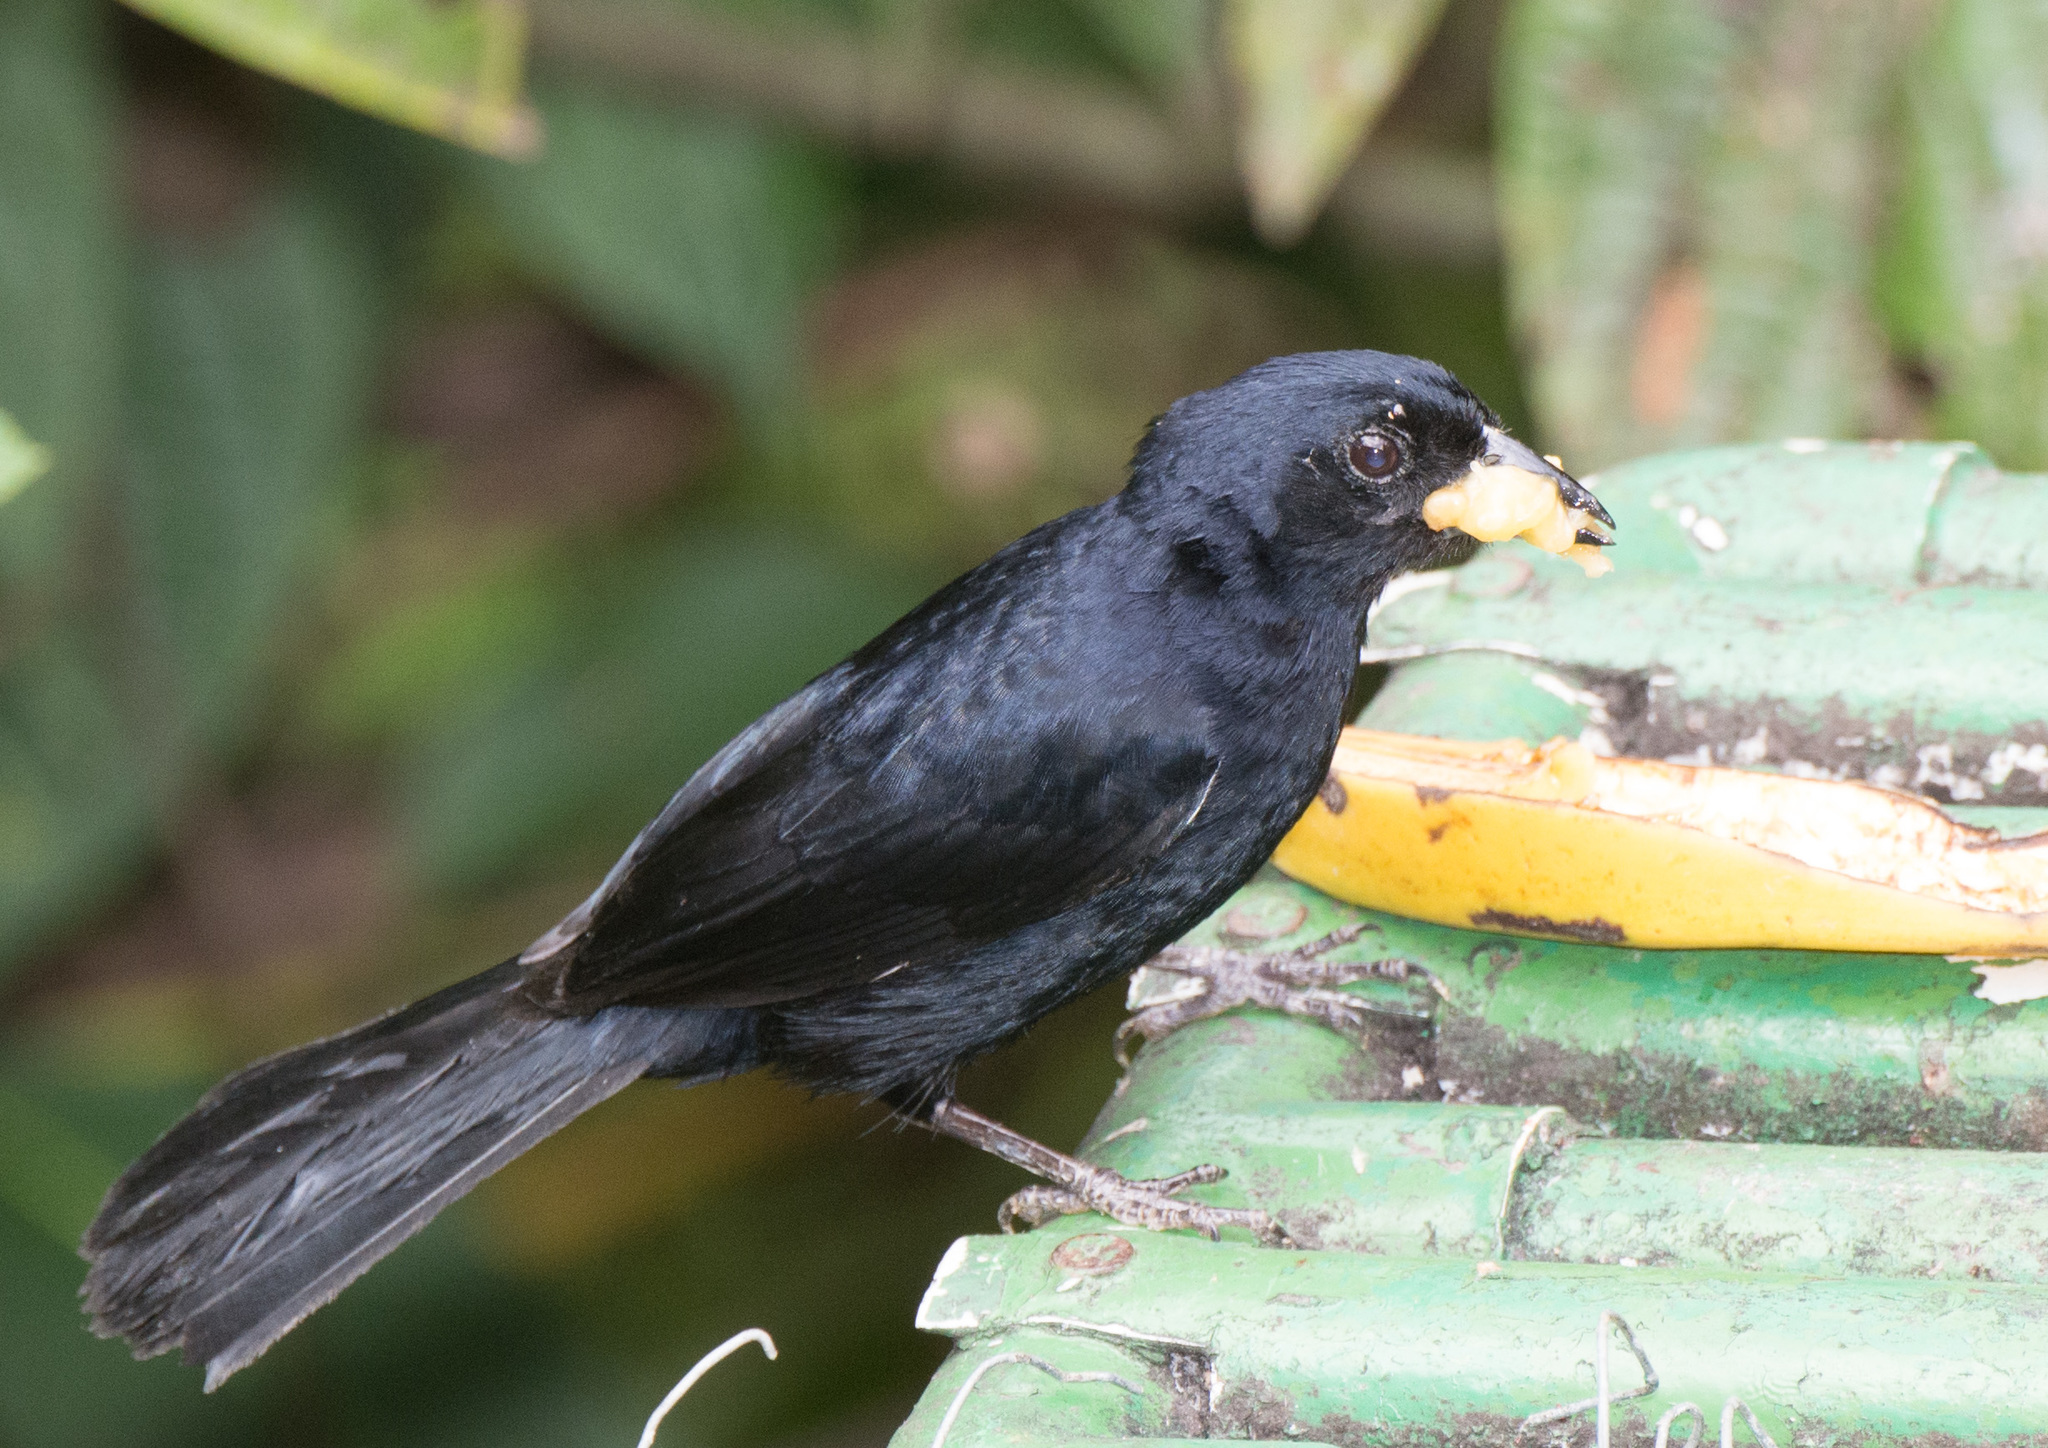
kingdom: Animalia
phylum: Chordata
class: Aves
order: Passeriformes
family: Thraupidae
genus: Tachyphonus
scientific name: Tachyphonus rufus
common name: White-lined tanager
